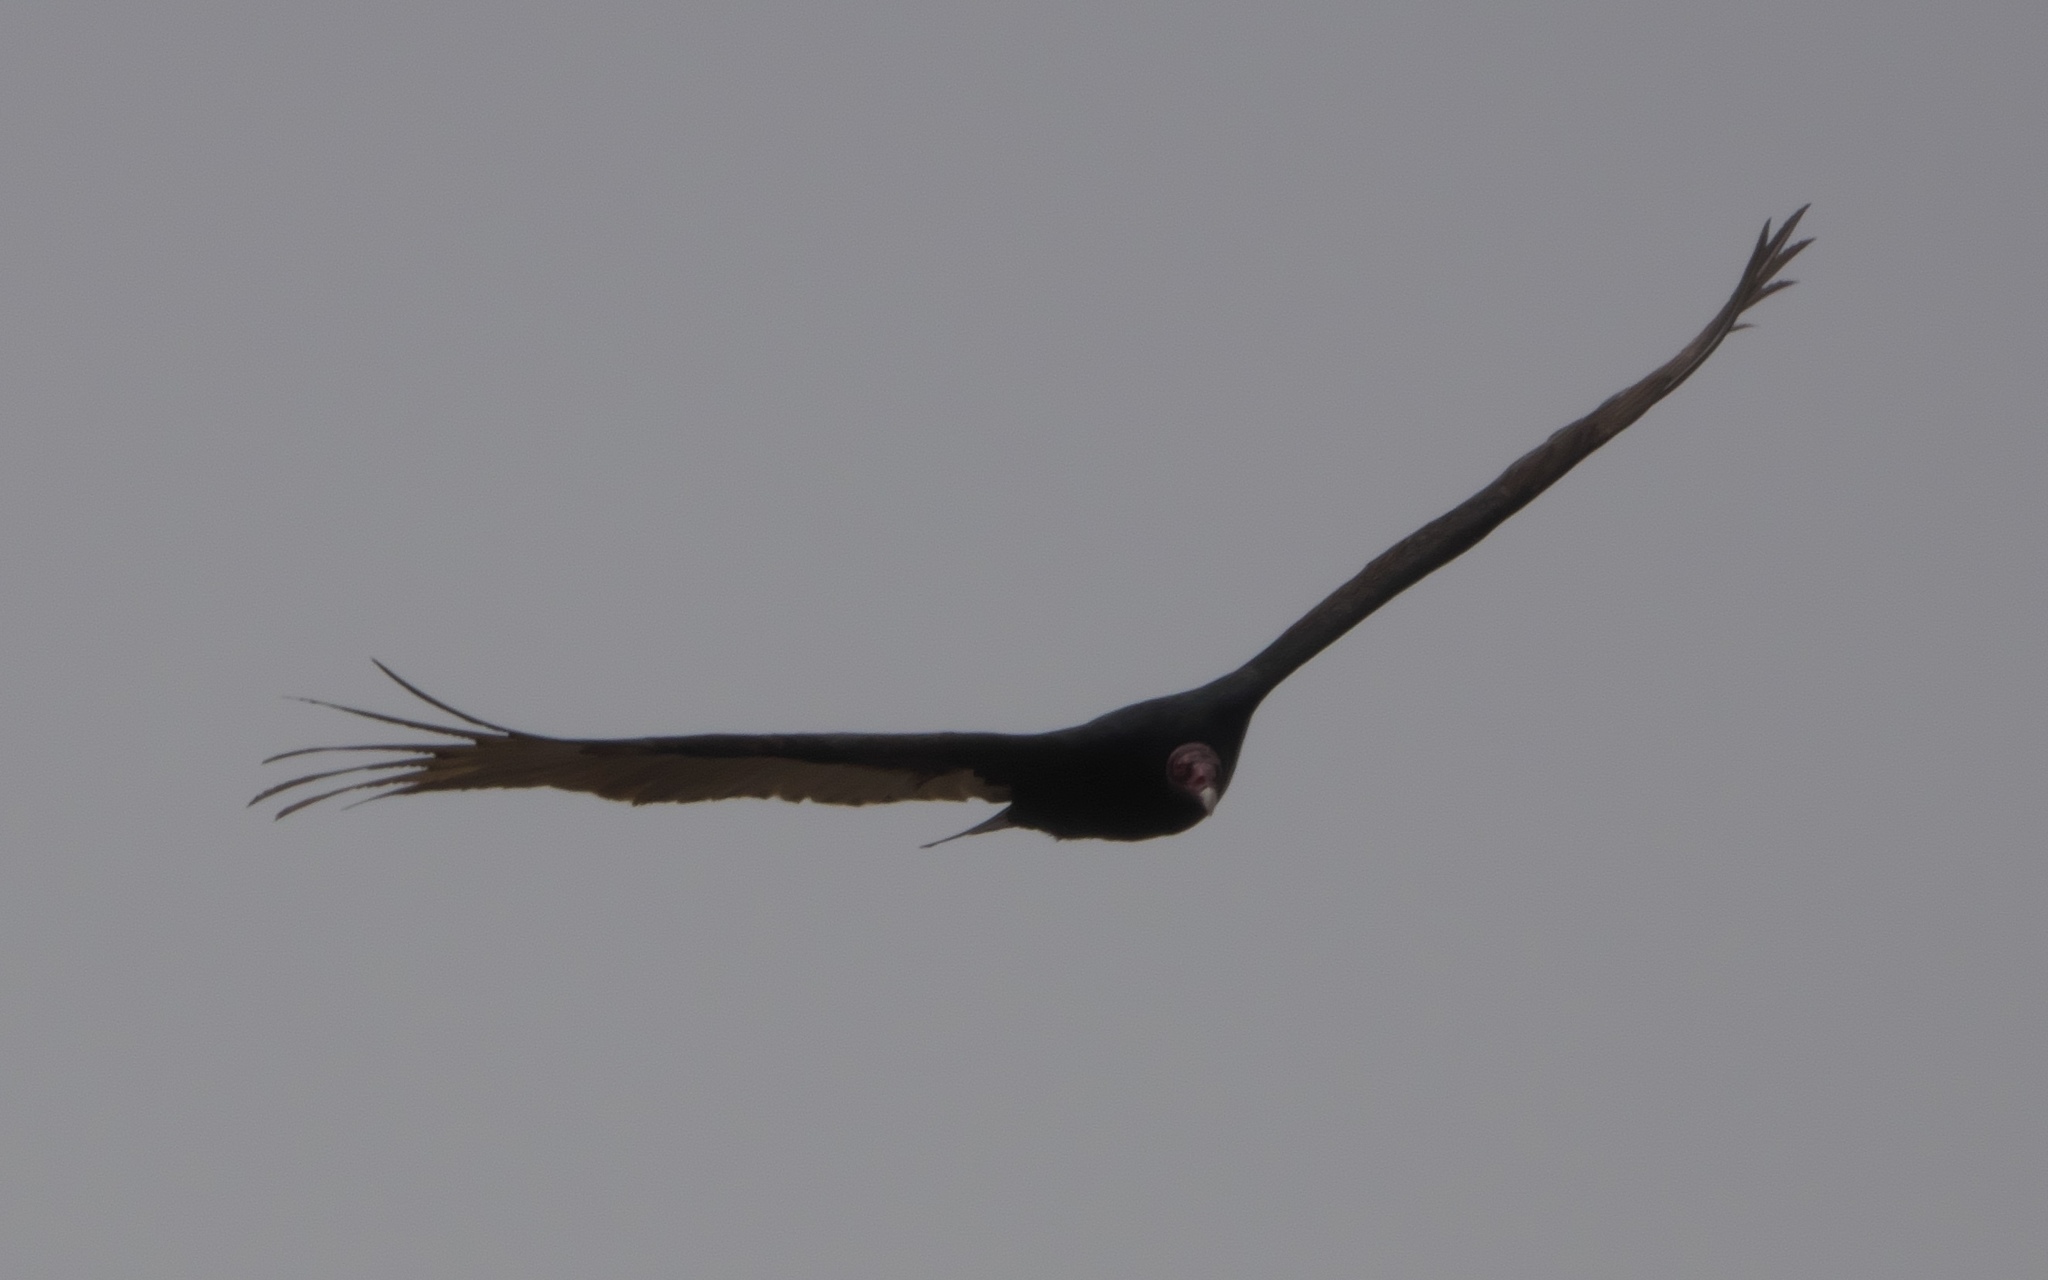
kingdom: Animalia
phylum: Chordata
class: Aves
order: Accipitriformes
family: Cathartidae
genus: Cathartes
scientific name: Cathartes aura
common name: Turkey vulture
